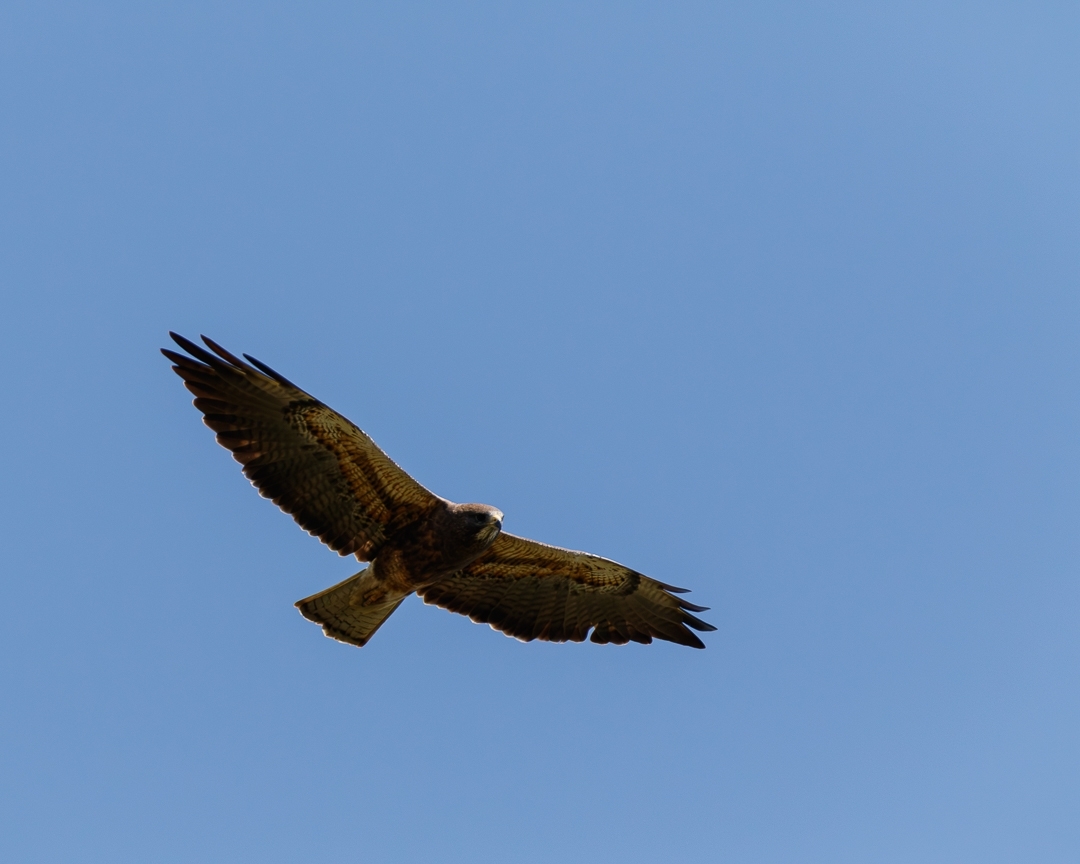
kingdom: Animalia
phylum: Chordata
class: Aves
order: Accipitriformes
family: Accipitridae
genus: Buteo
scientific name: Buteo swainsoni
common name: Swainson's hawk
